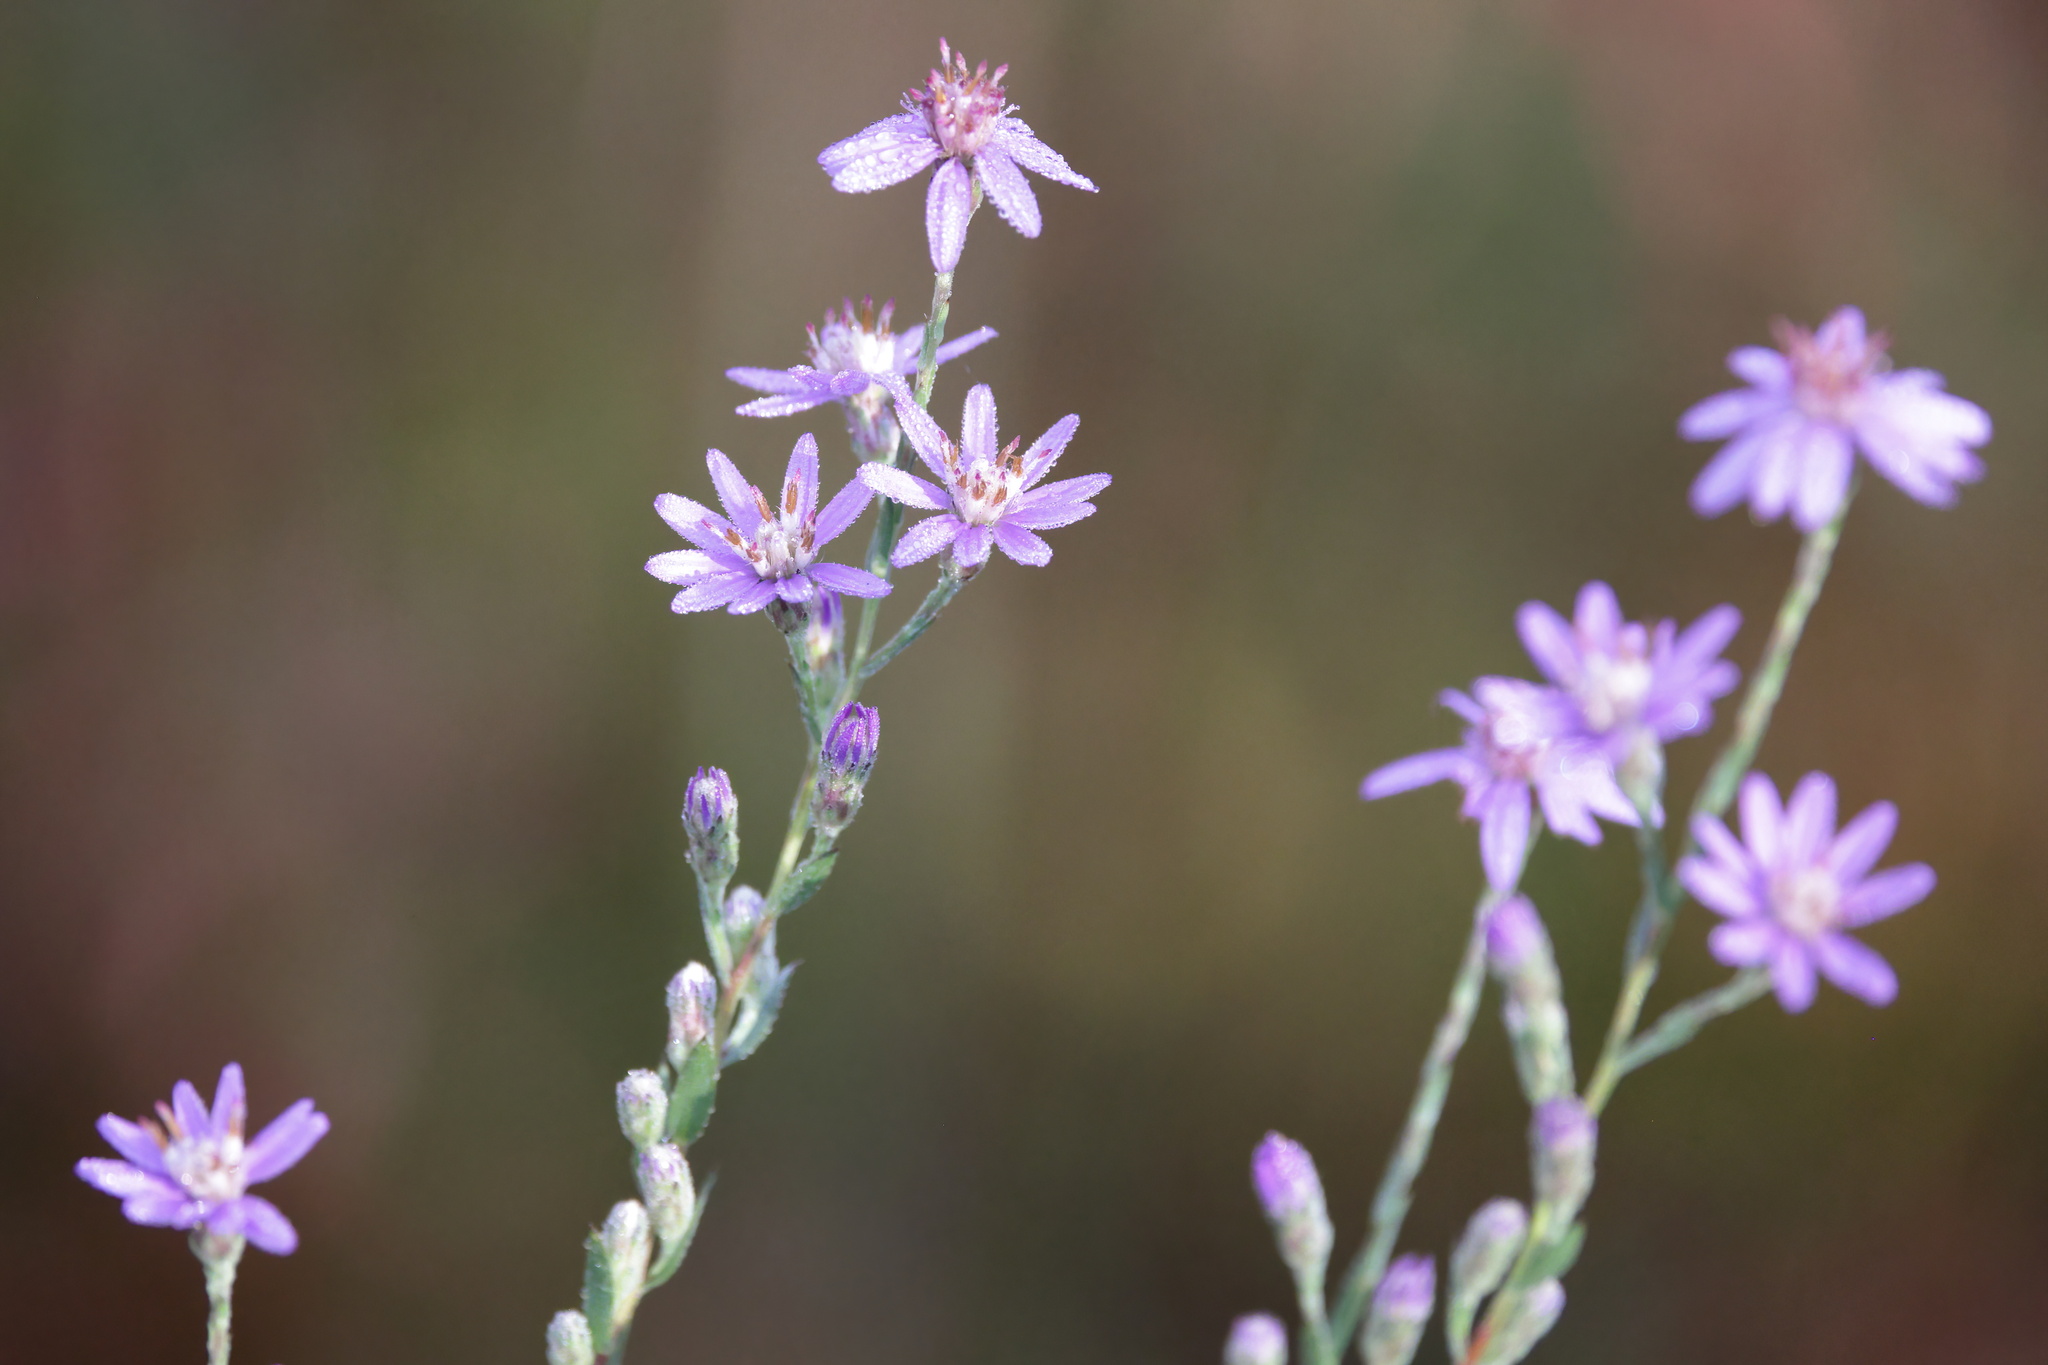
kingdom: Plantae
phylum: Tracheophyta
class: Magnoliopsida
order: Asterales
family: Asteraceae
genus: Symphyotrichum
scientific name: Symphyotrichum concolor
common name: Eastern silver aster
